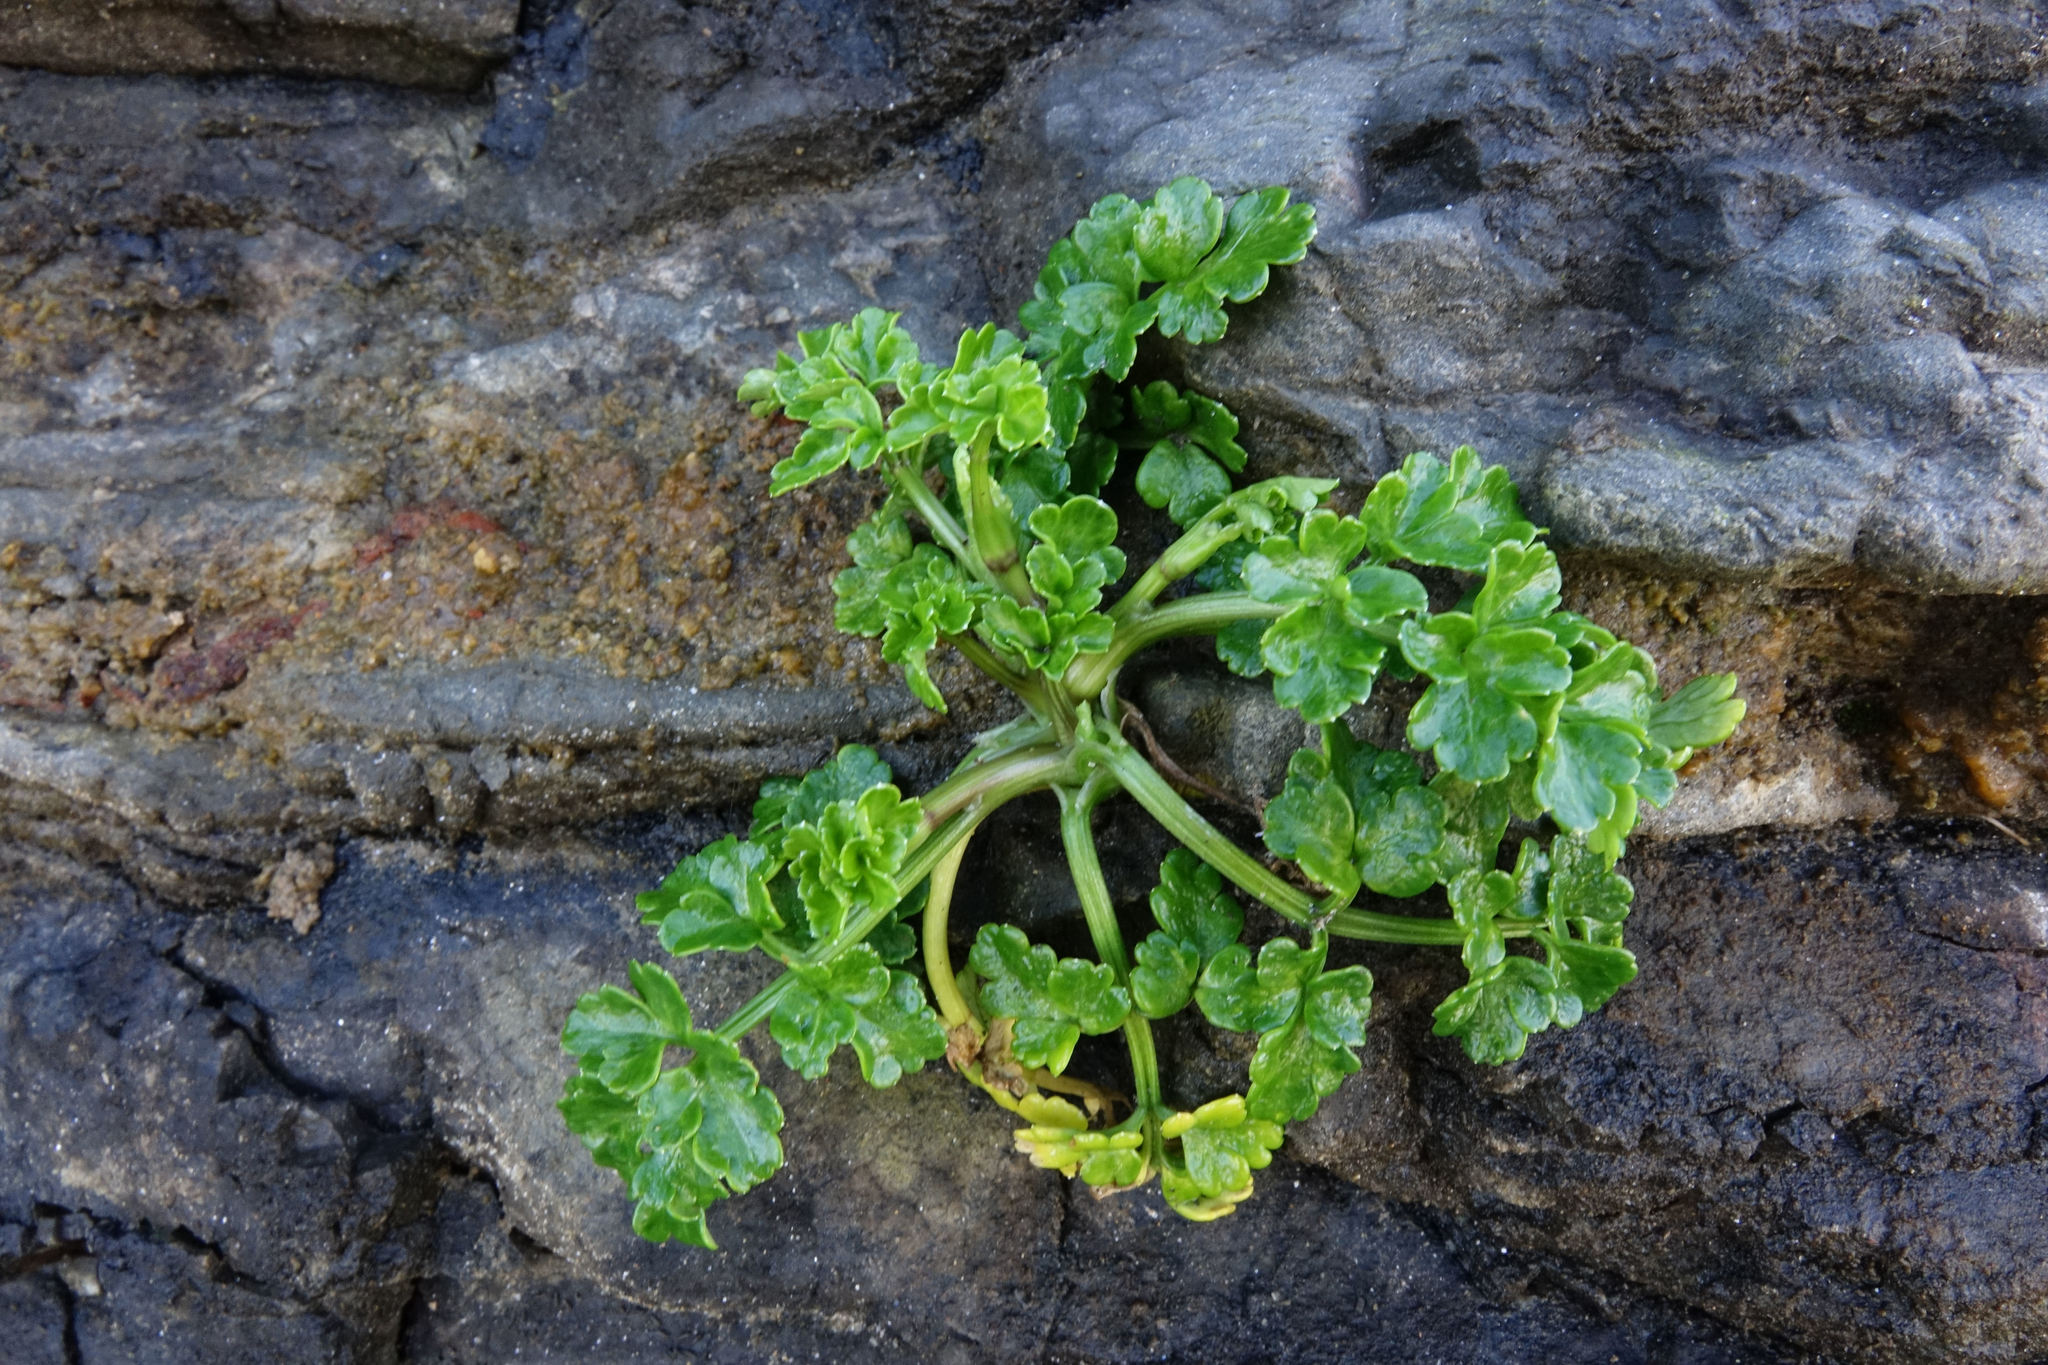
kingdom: Plantae
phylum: Tracheophyta
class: Magnoliopsida
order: Apiales
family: Apiaceae
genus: Apium
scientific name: Apium prostratum
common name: Prostrate marshwort
